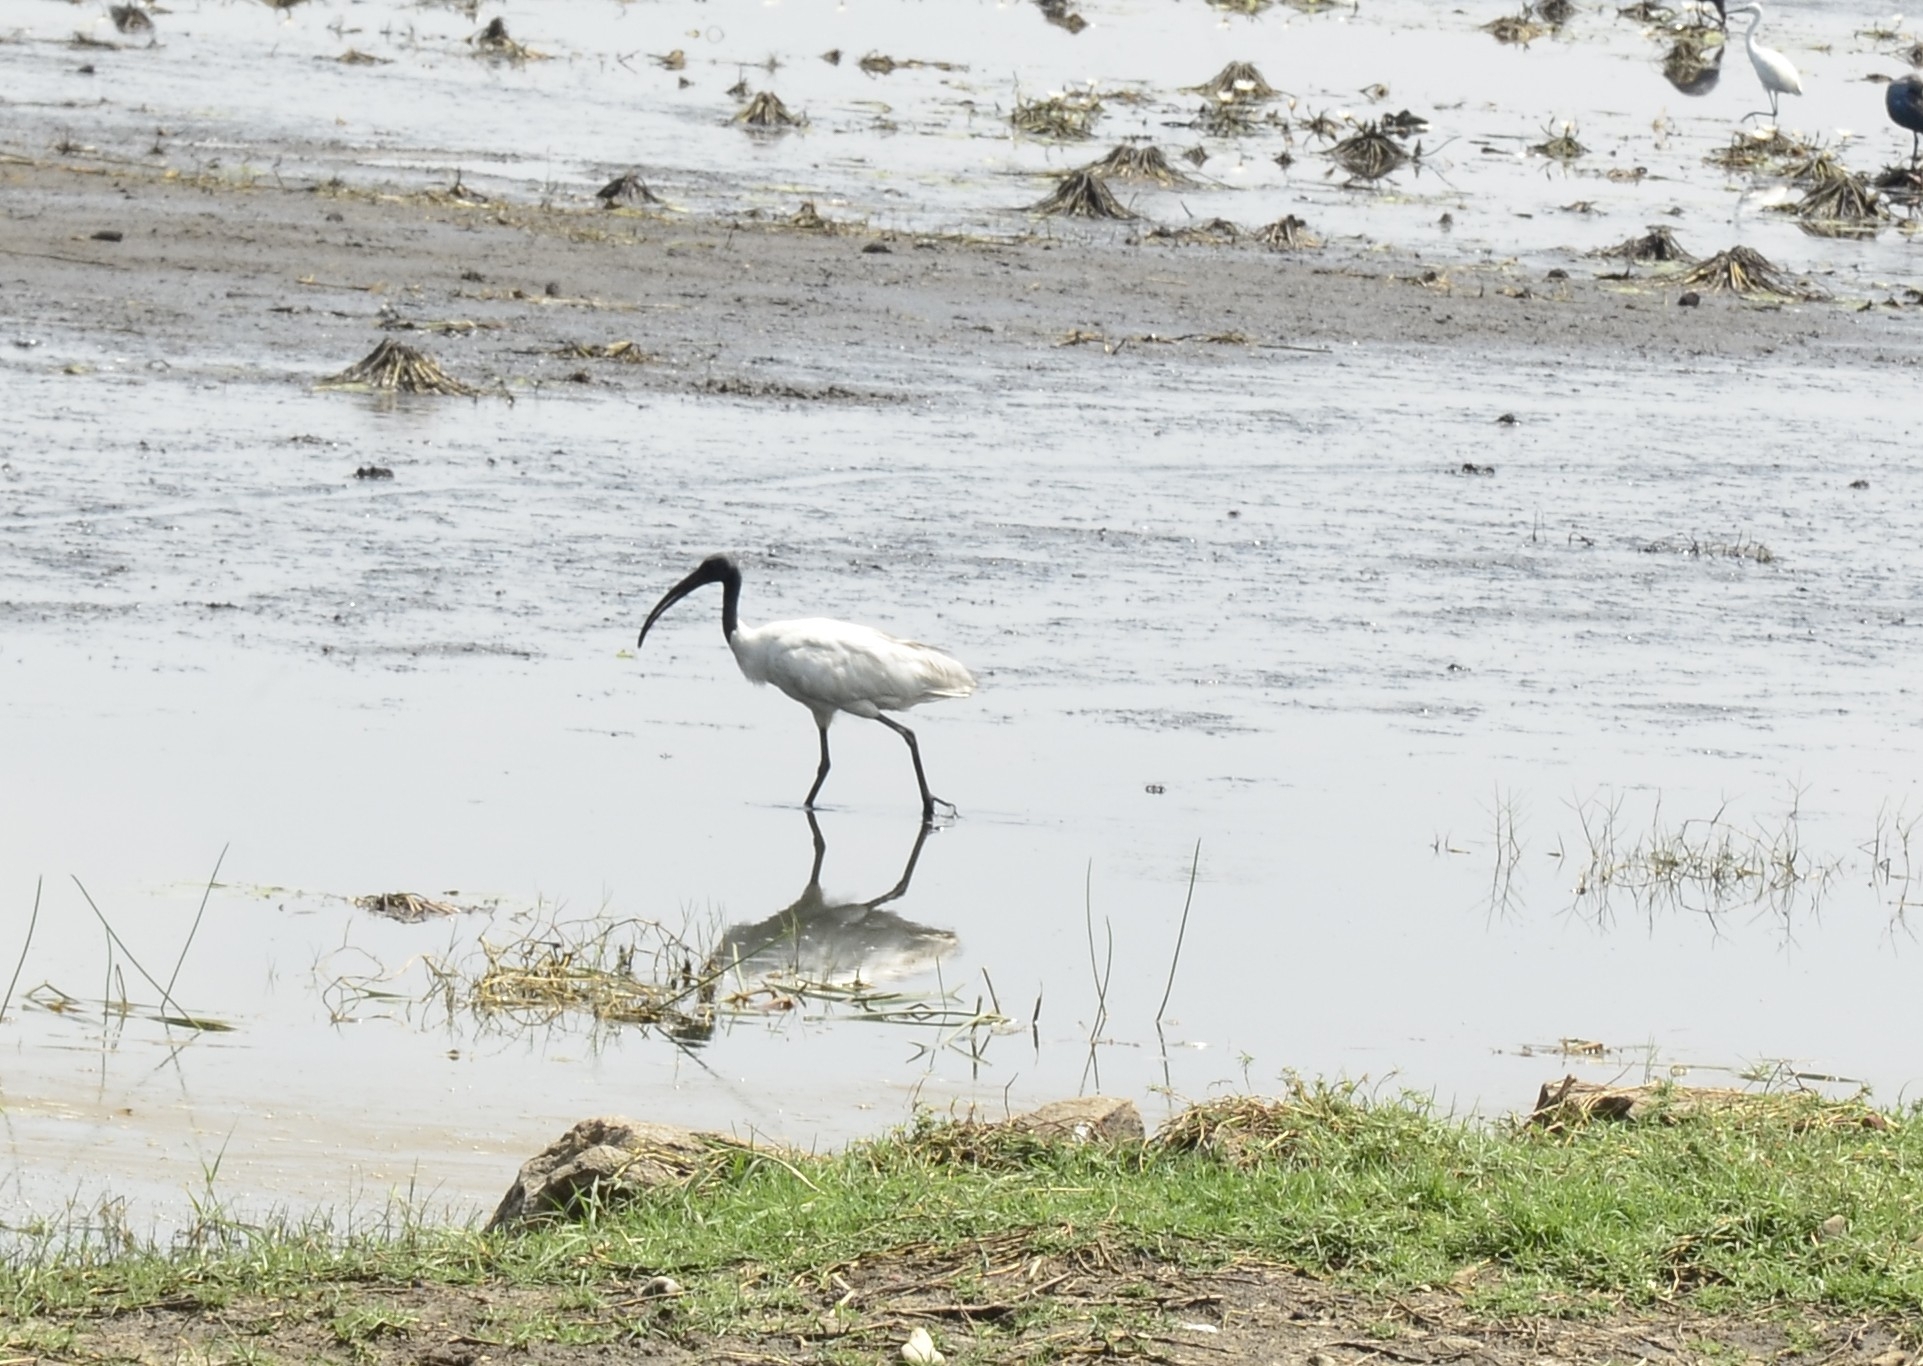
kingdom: Animalia
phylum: Chordata
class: Aves
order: Pelecaniformes
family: Threskiornithidae
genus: Threskiornis
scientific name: Threskiornis melanocephalus
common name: Black-headed ibis
